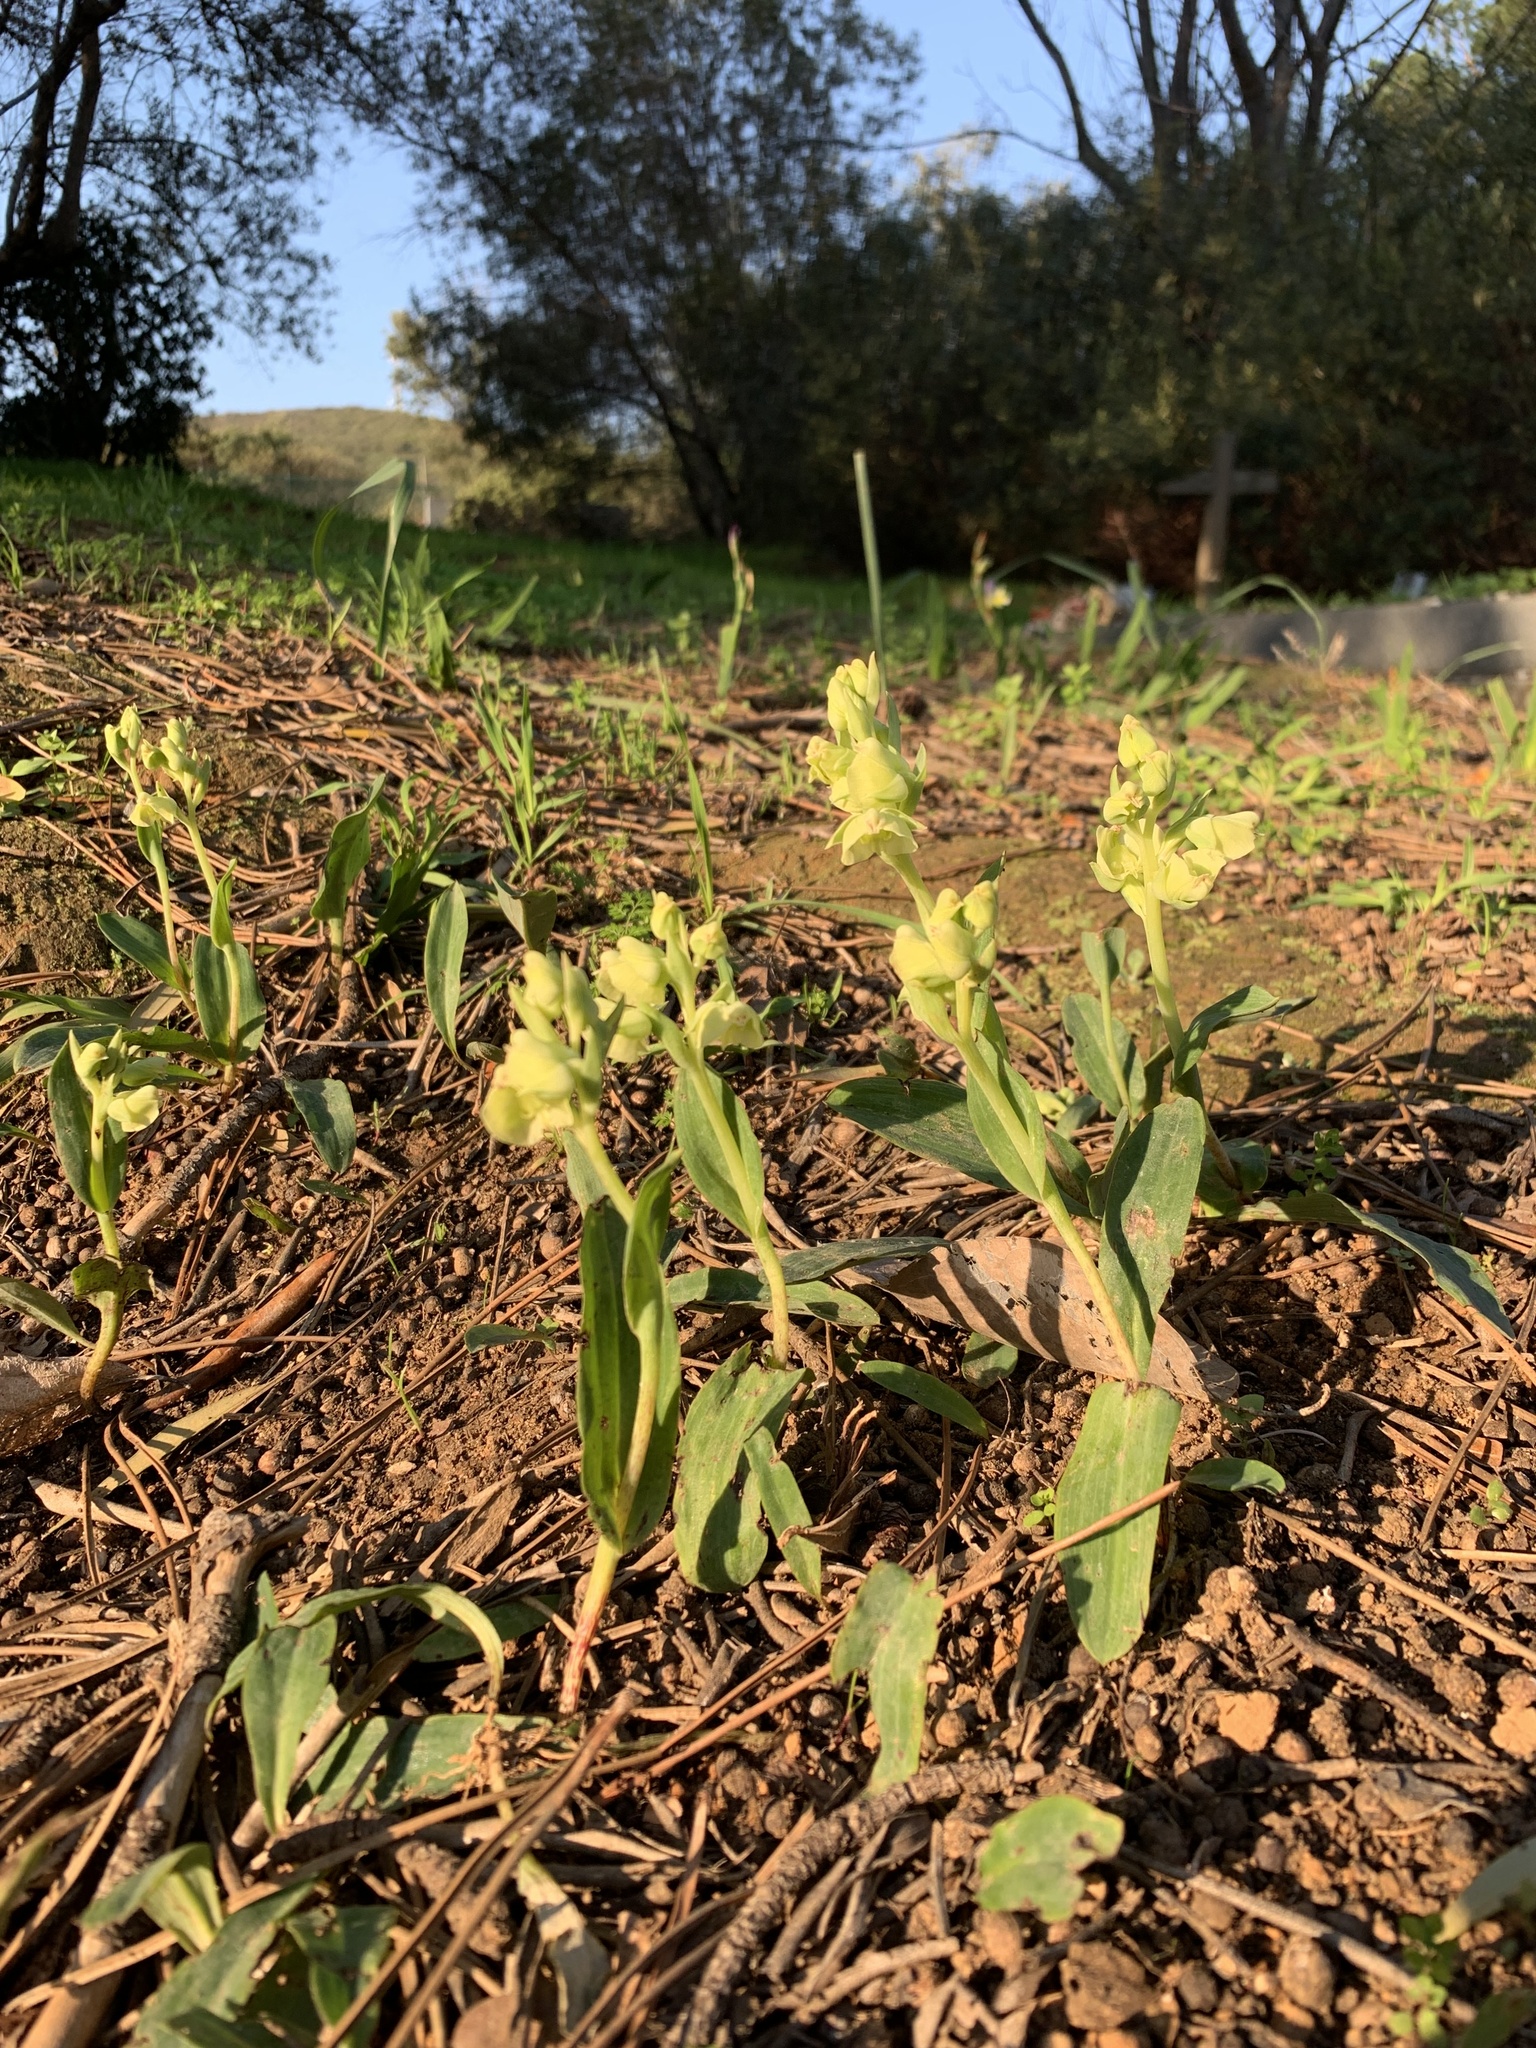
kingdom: Plantae
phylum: Tracheophyta
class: Liliopsida
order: Asparagales
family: Orchidaceae
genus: Pterygodium
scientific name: Pterygodium catholicum
